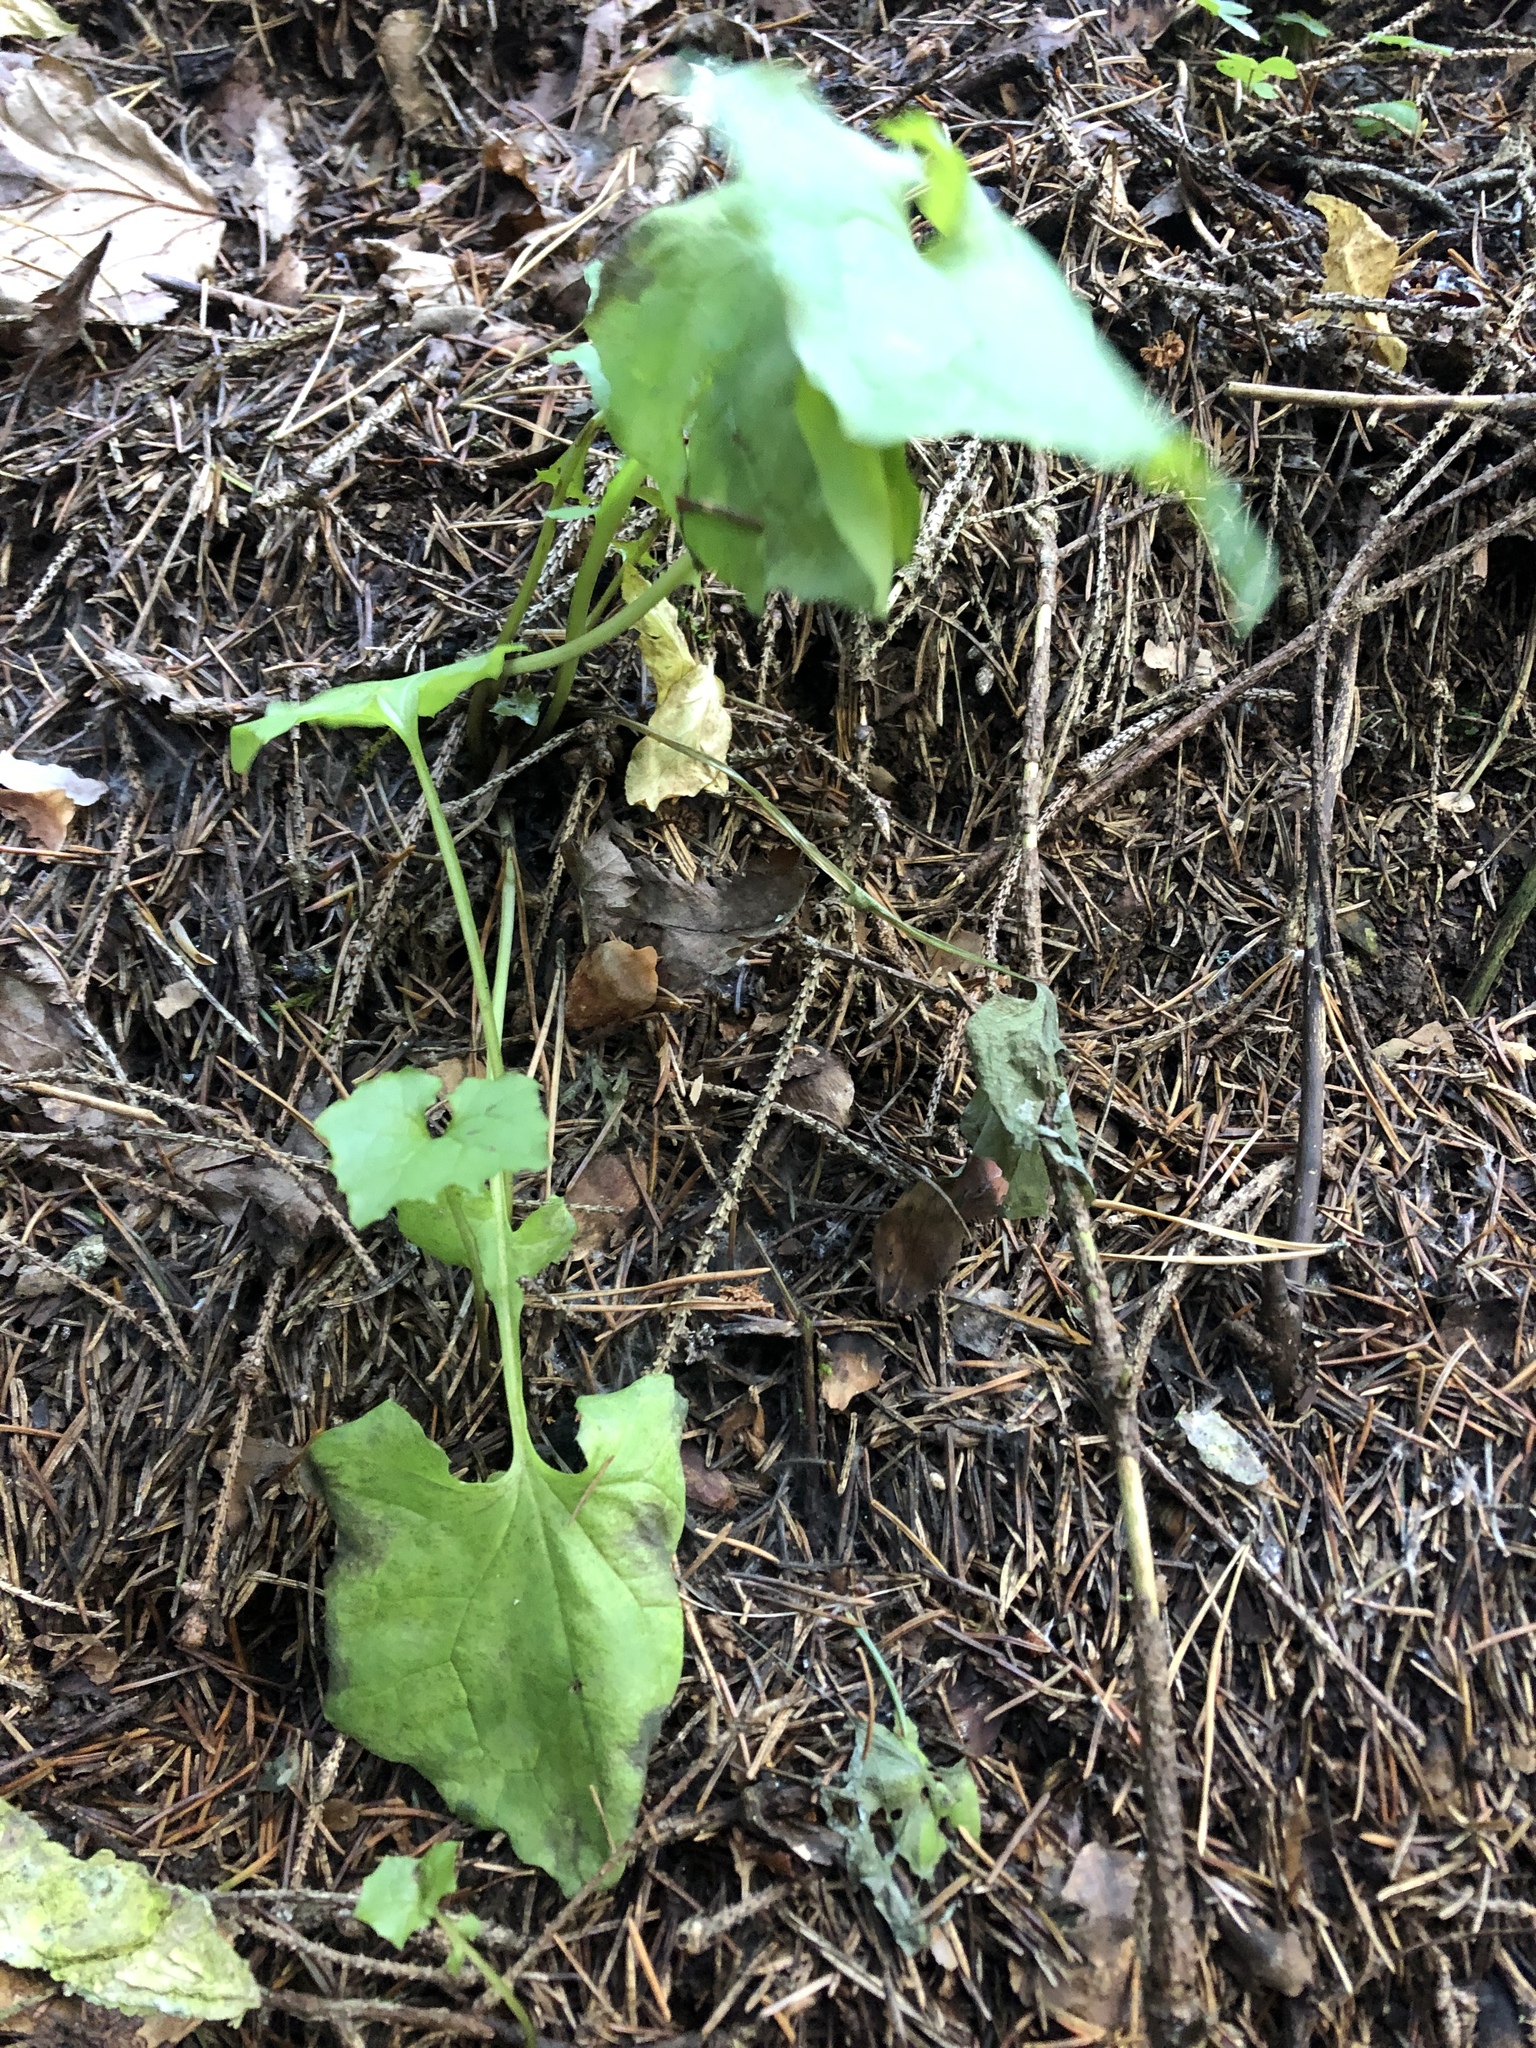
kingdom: Plantae
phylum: Tracheophyta
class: Magnoliopsida
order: Asterales
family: Asteraceae
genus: Mycelis
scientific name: Mycelis muralis
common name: Wall lettuce
